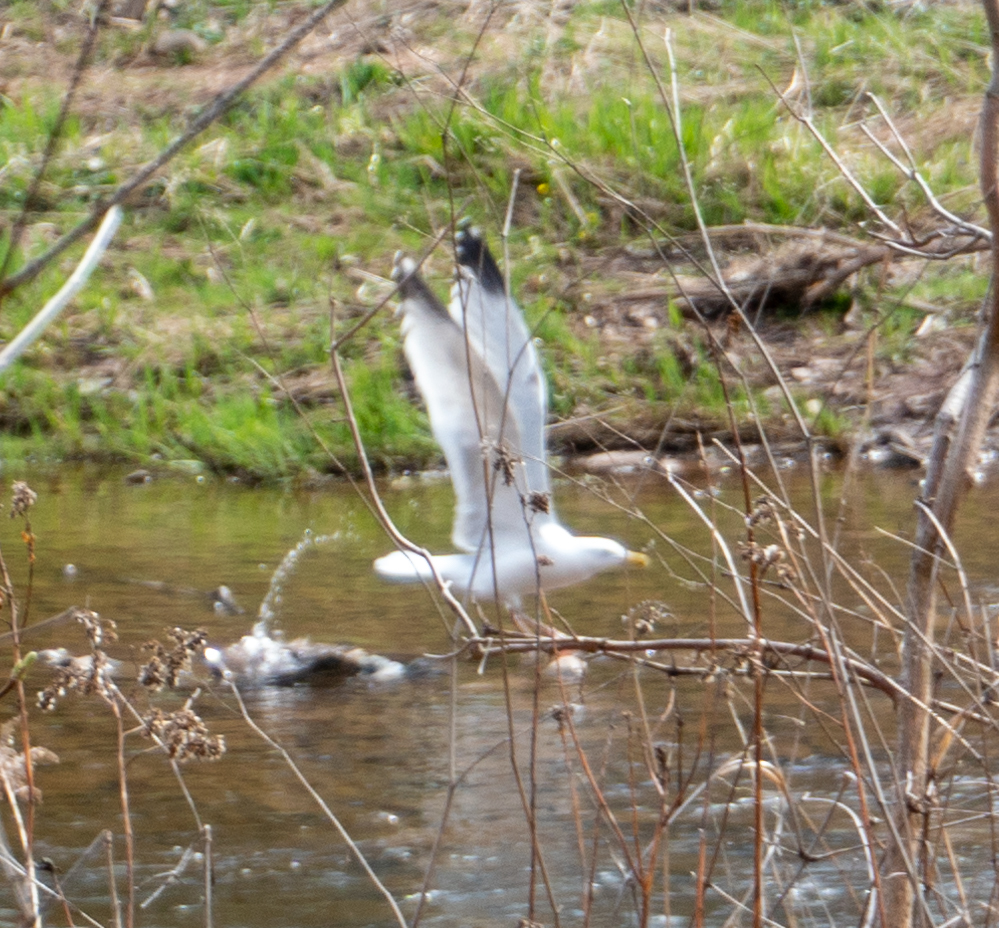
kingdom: Animalia
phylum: Chordata
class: Aves
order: Charadriiformes
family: Laridae
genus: Larus
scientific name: Larus argentatus
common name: Herring gull
